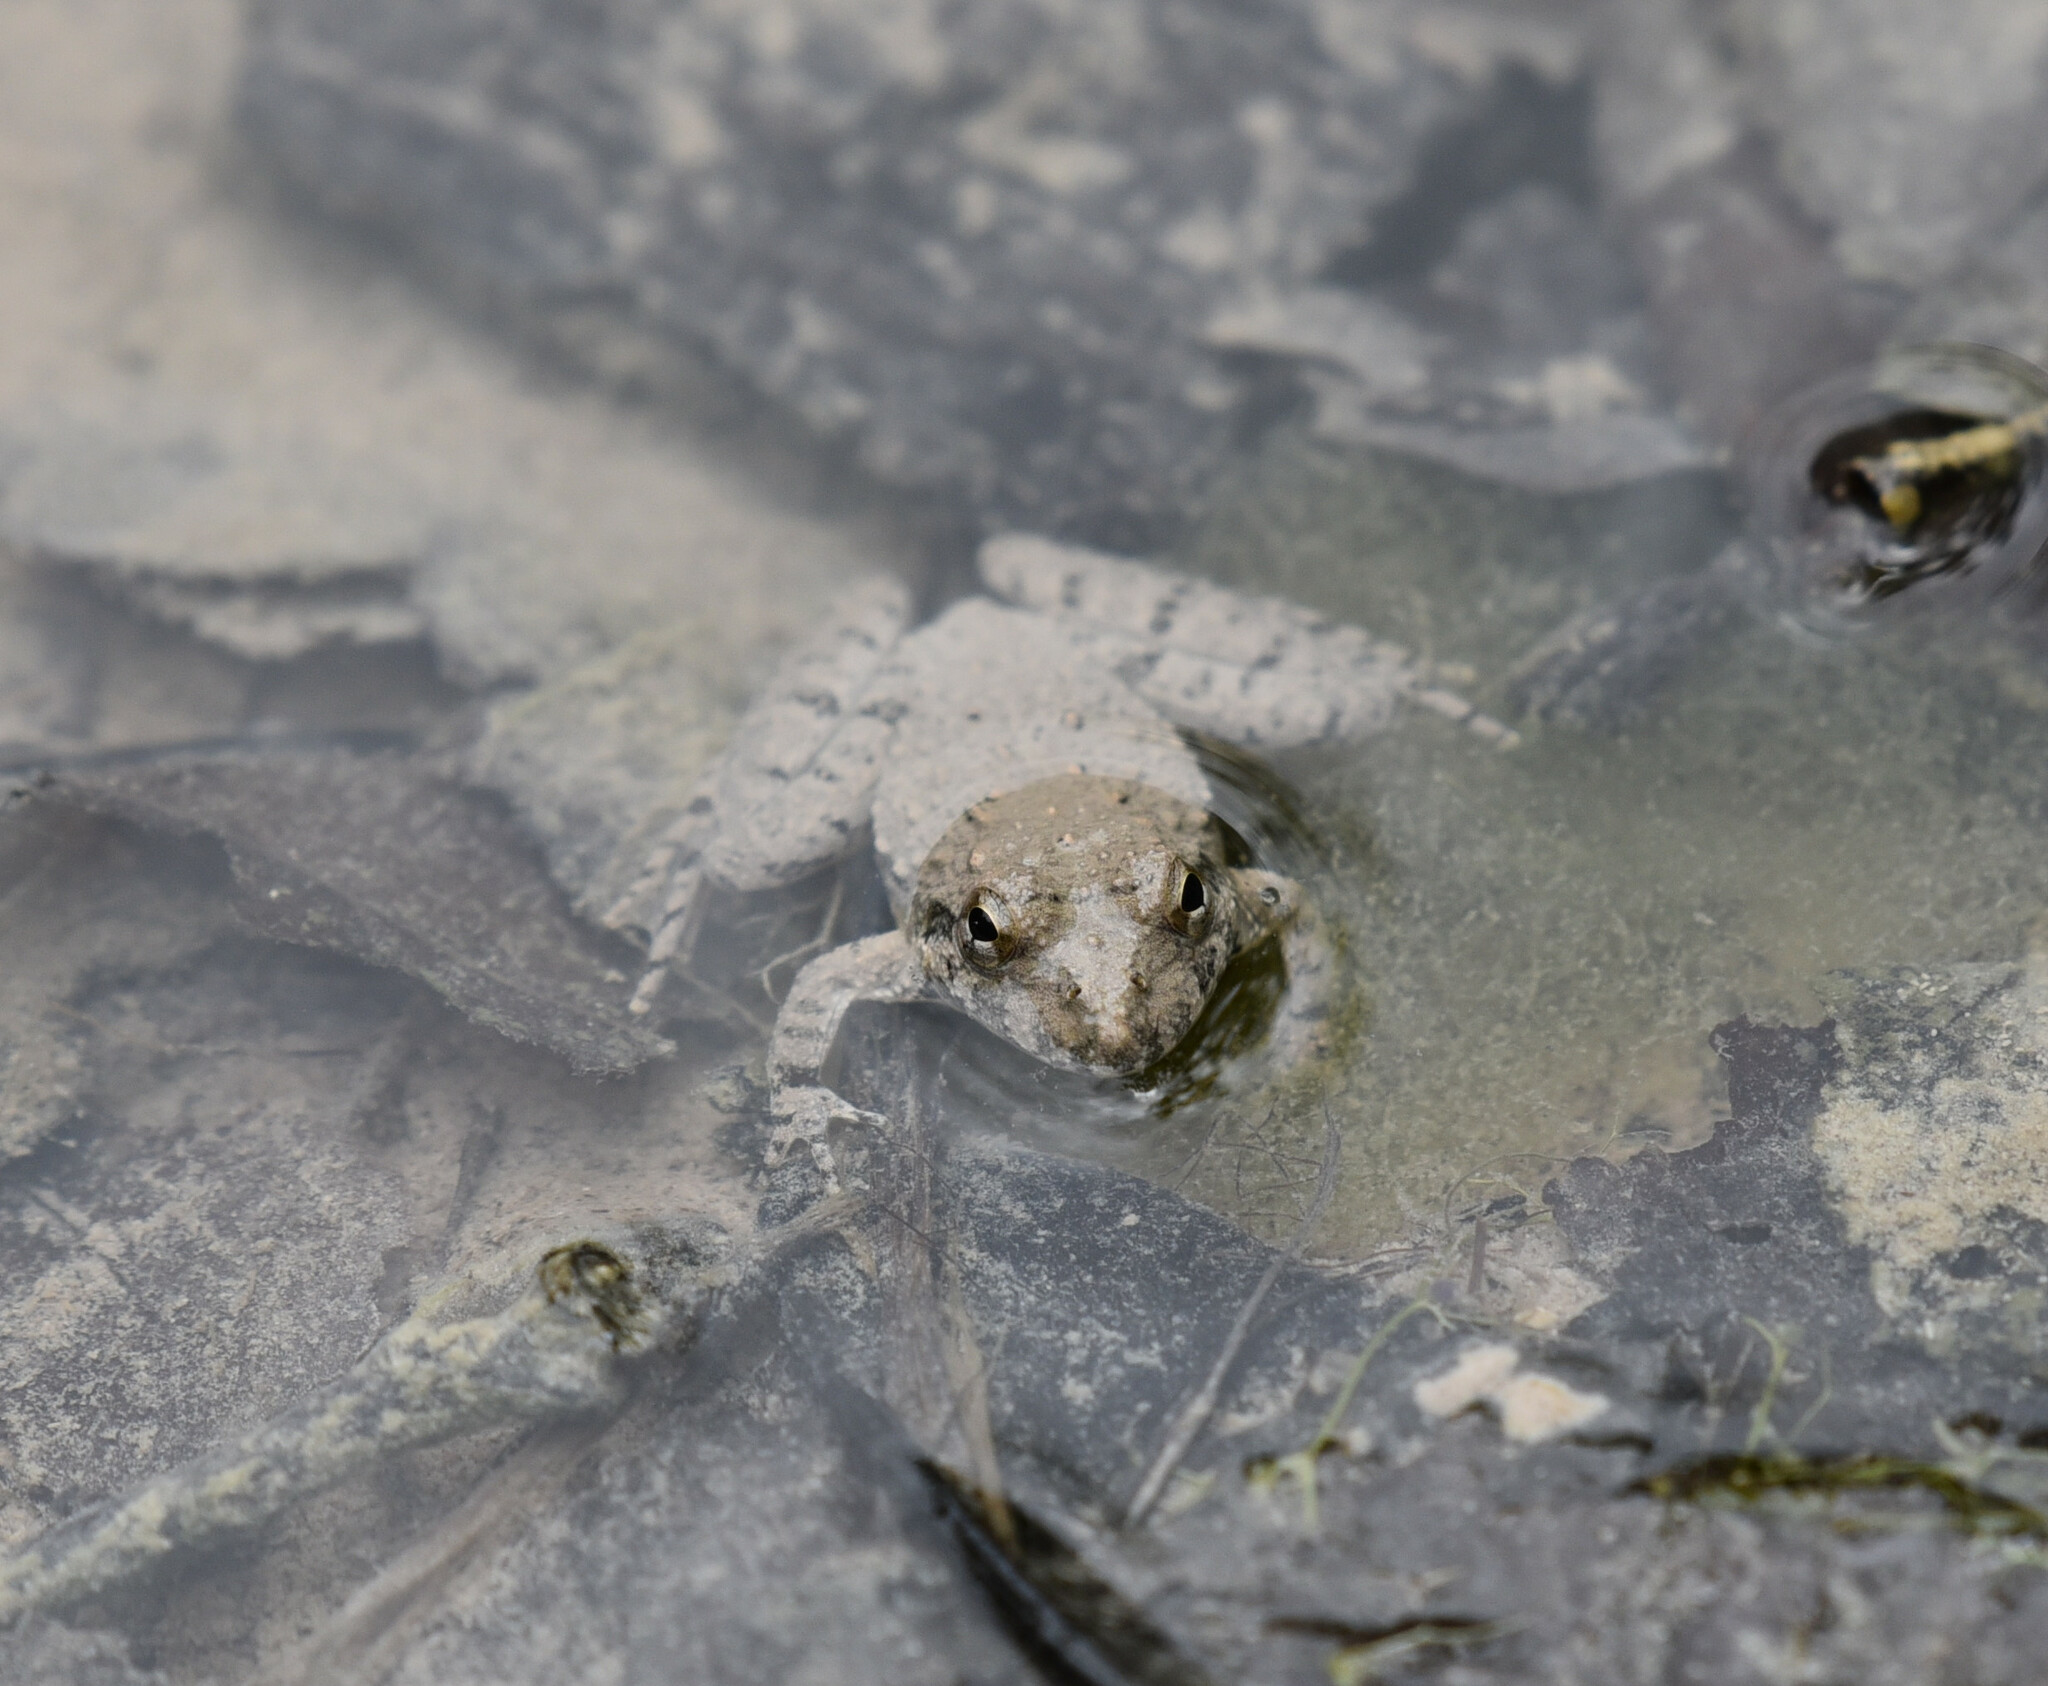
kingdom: Animalia
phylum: Chordata
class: Amphibia
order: Anura
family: Hylidae
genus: Acris
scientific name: Acris blanchardi
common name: Blanchard's cricket frog
